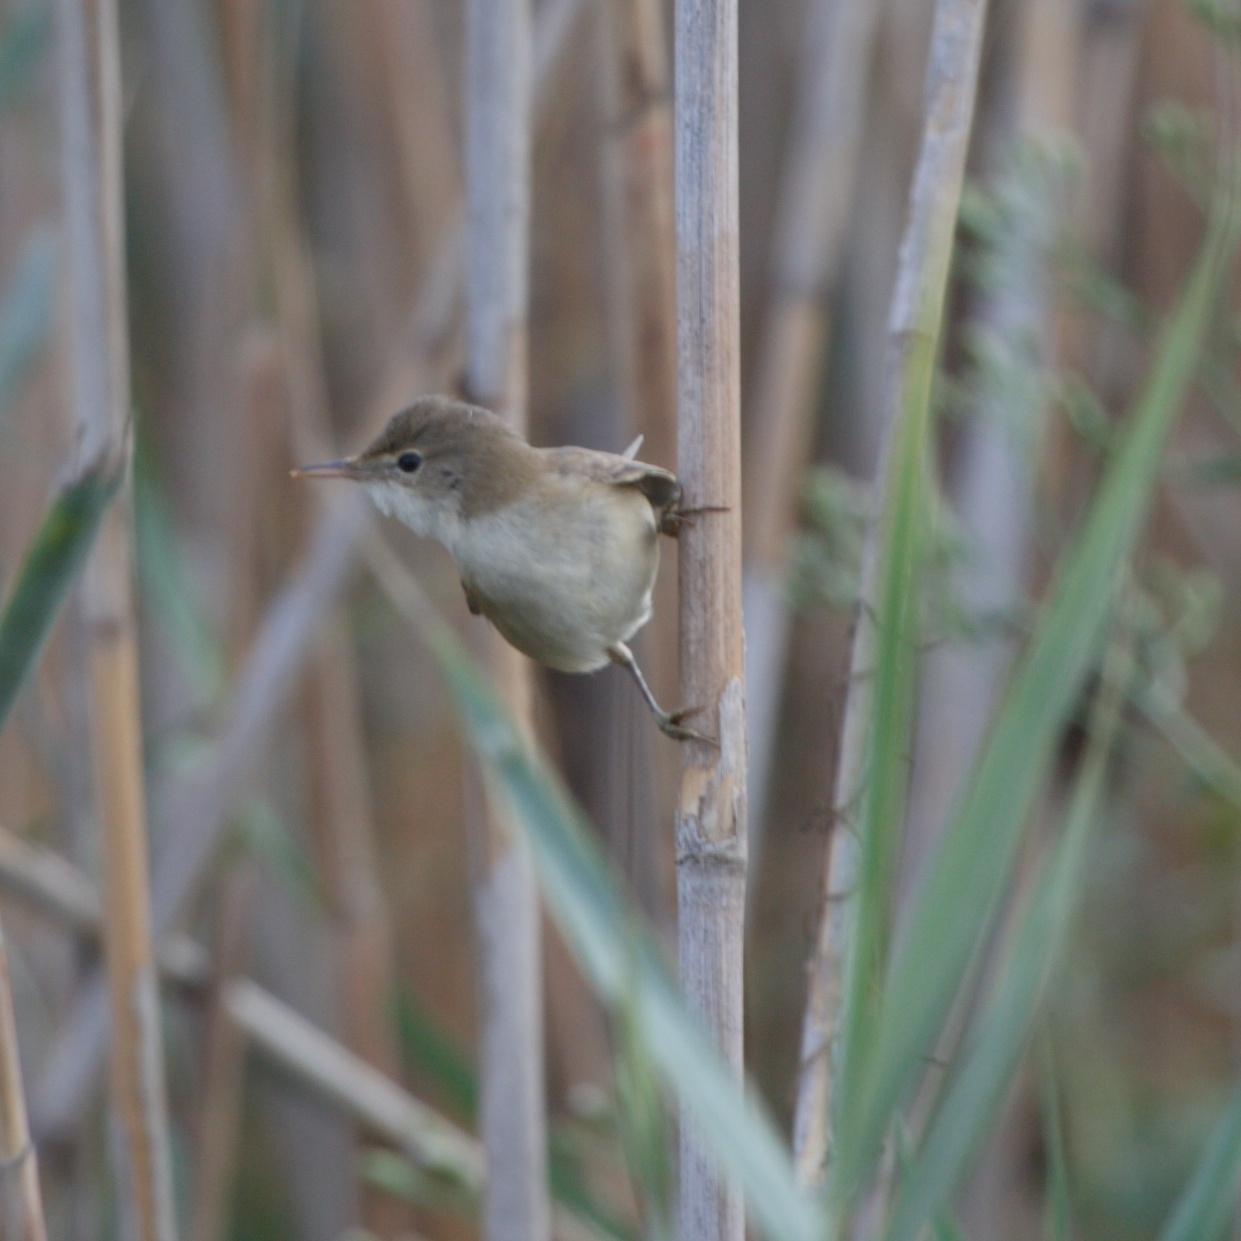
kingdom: Animalia
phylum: Chordata
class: Aves
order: Passeriformes
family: Acrocephalidae
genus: Acrocephalus
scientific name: Acrocephalus scirpaceus
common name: Eurasian reed warbler
